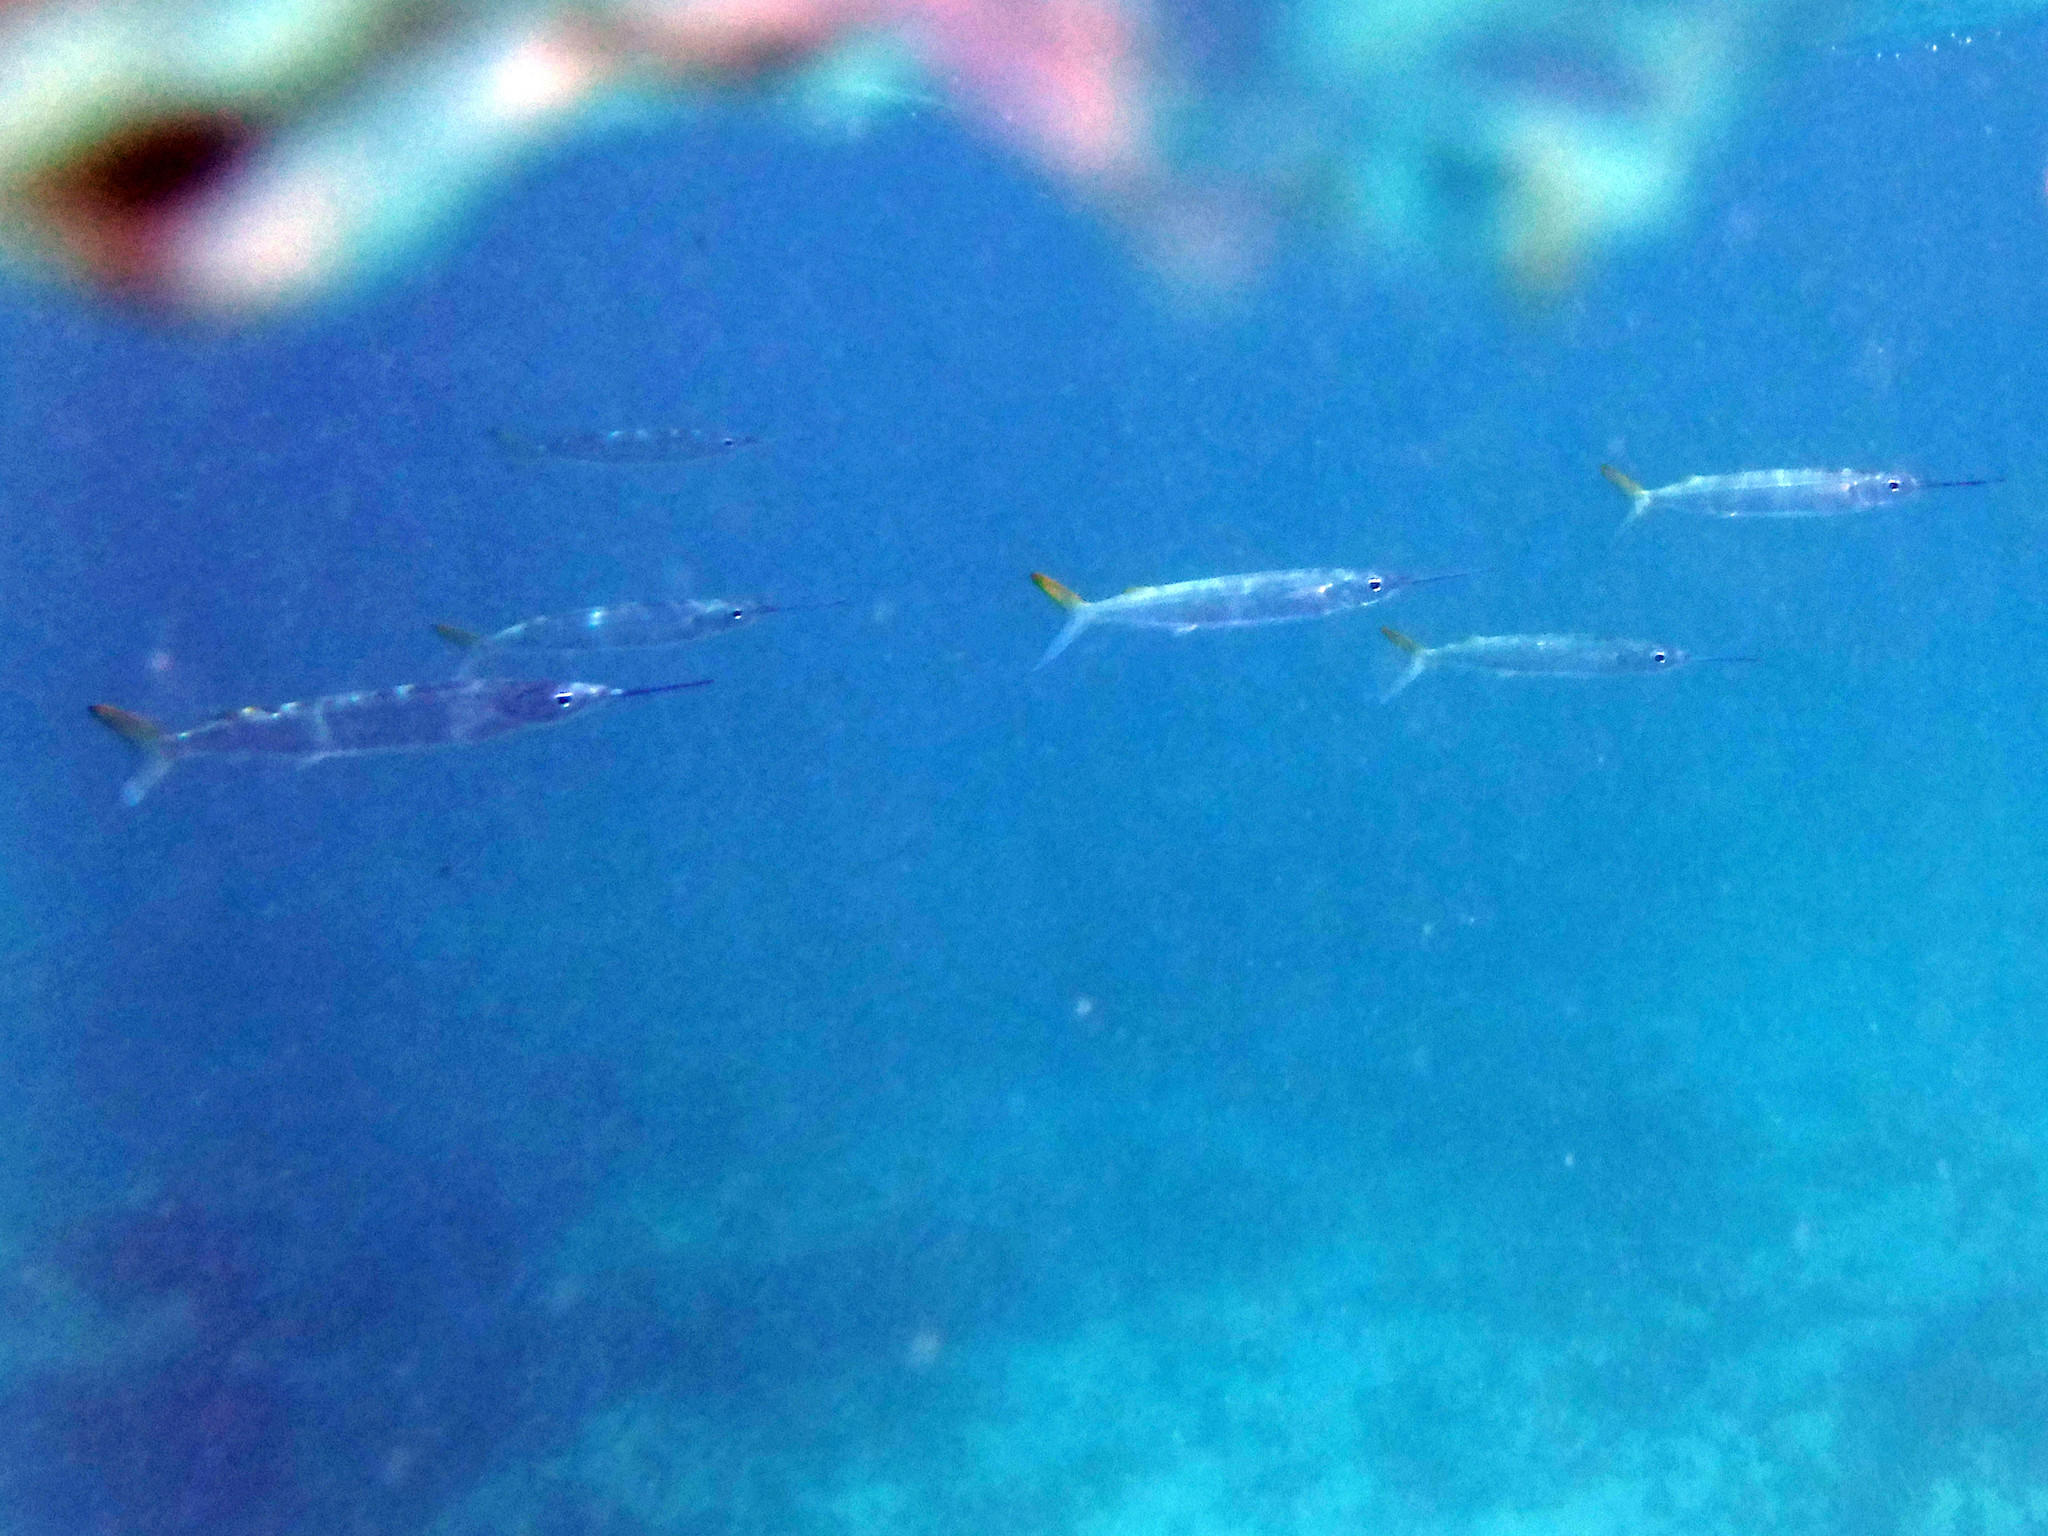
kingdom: Animalia
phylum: Chordata
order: Beloniformes
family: Hemiramphidae
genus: Hemiramphus
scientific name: Hemiramphus brasiliensis
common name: Ballyhoo
